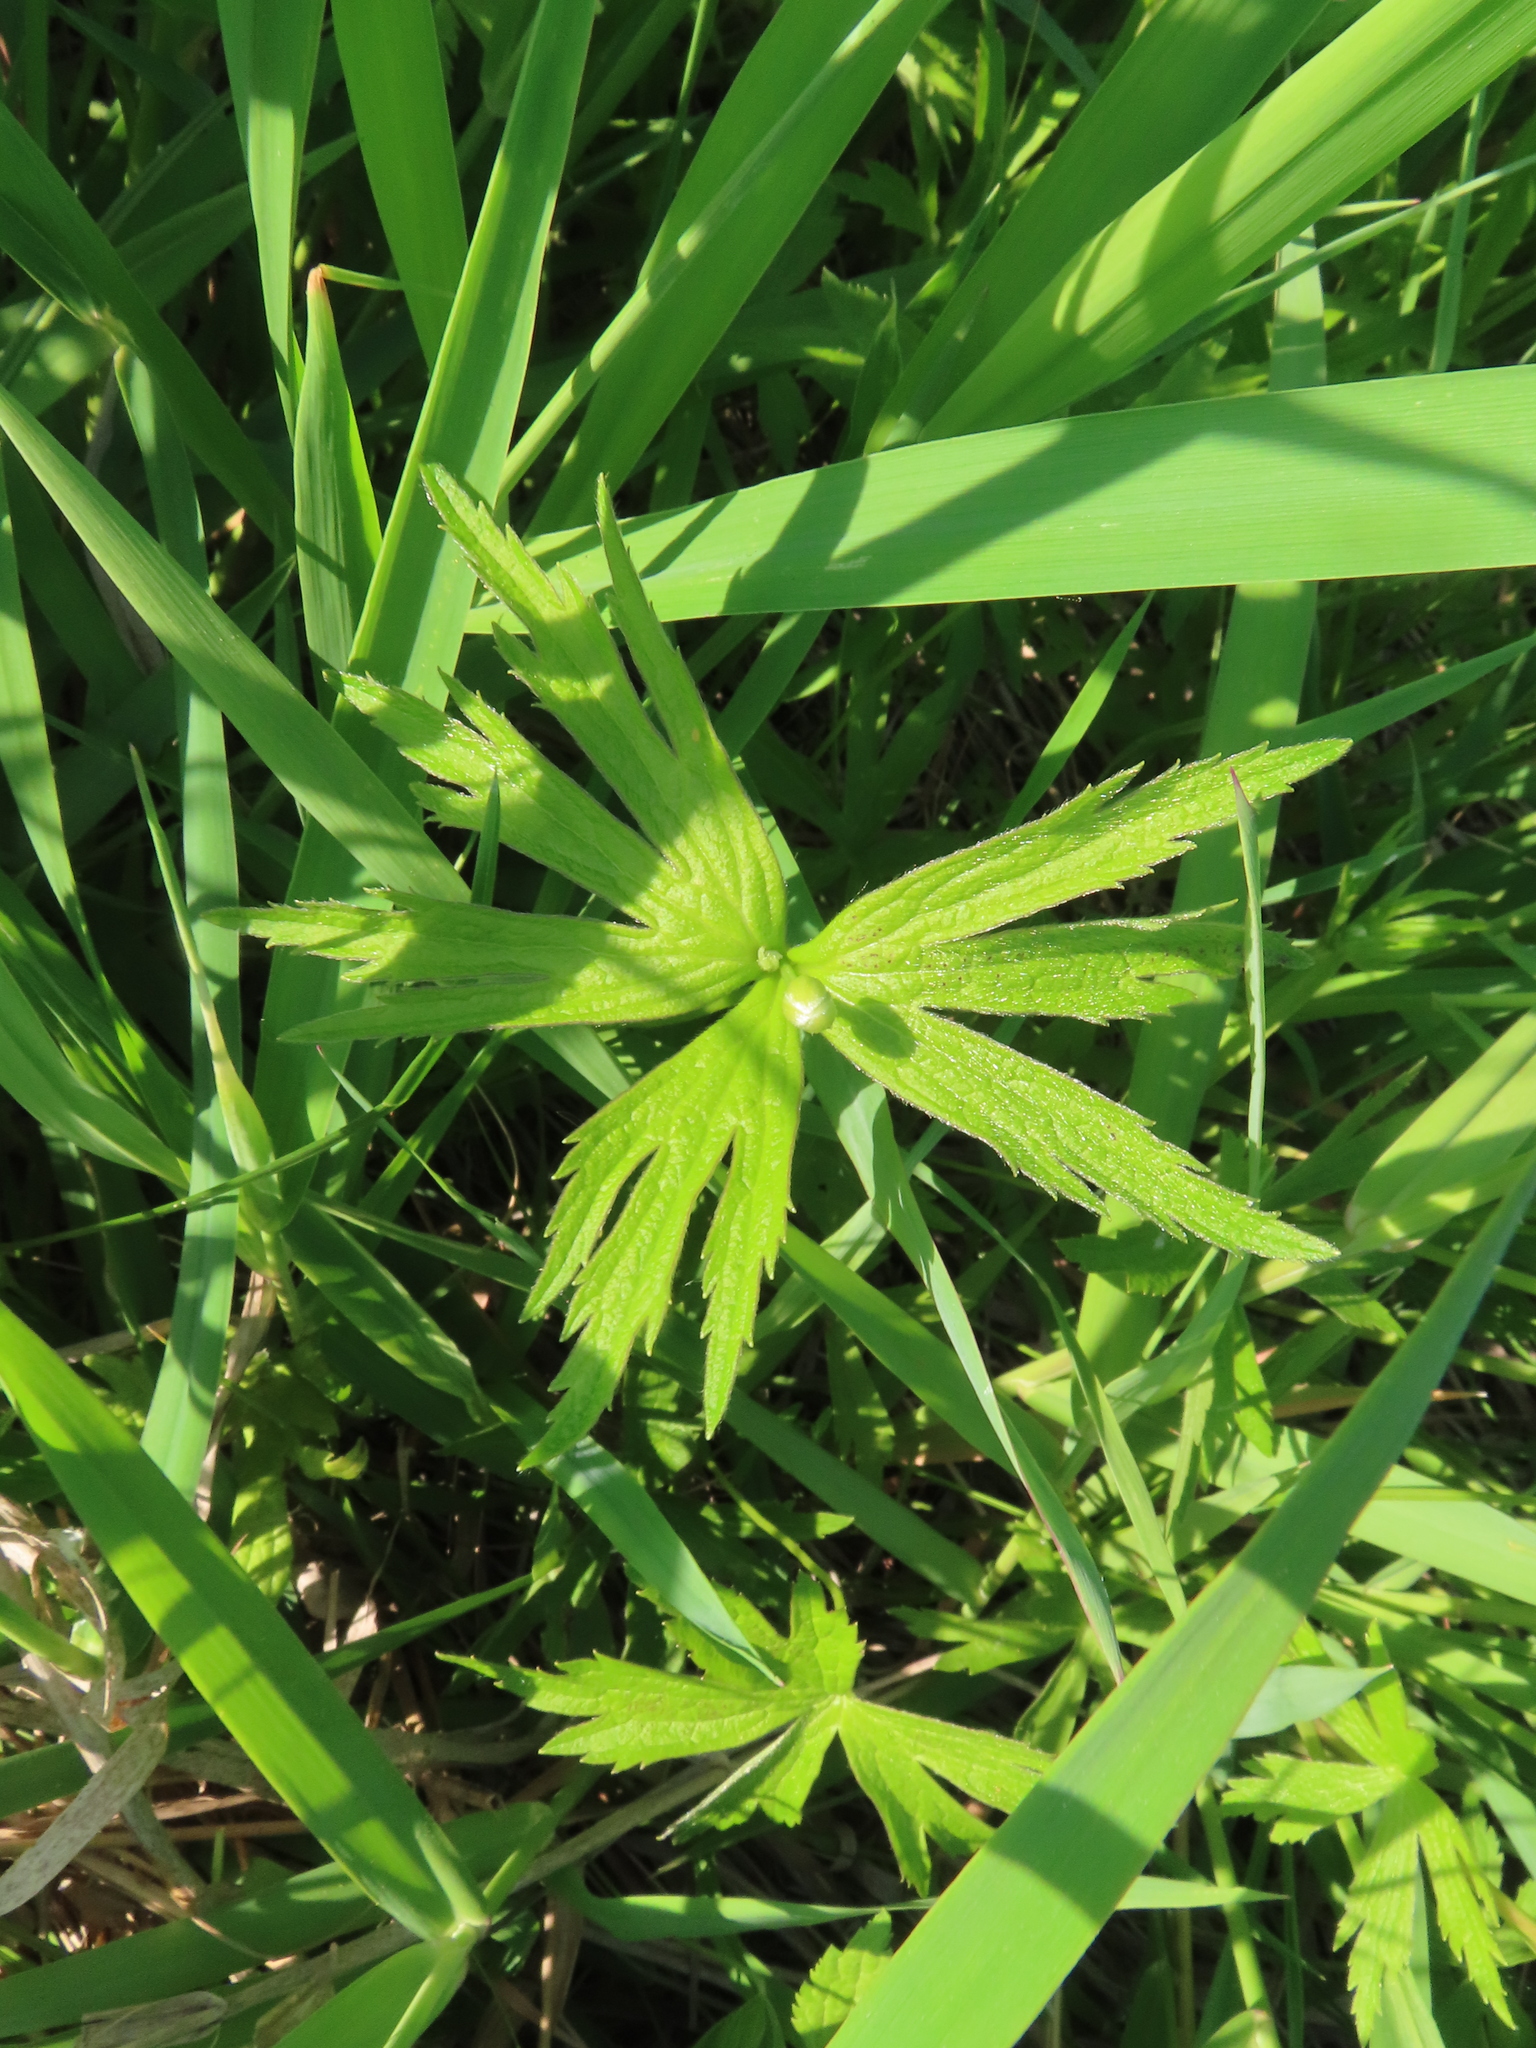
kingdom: Plantae
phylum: Tracheophyta
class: Magnoliopsida
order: Ranunculales
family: Ranunculaceae
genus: Anemonastrum
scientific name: Anemonastrum canadense
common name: Canada anemone
